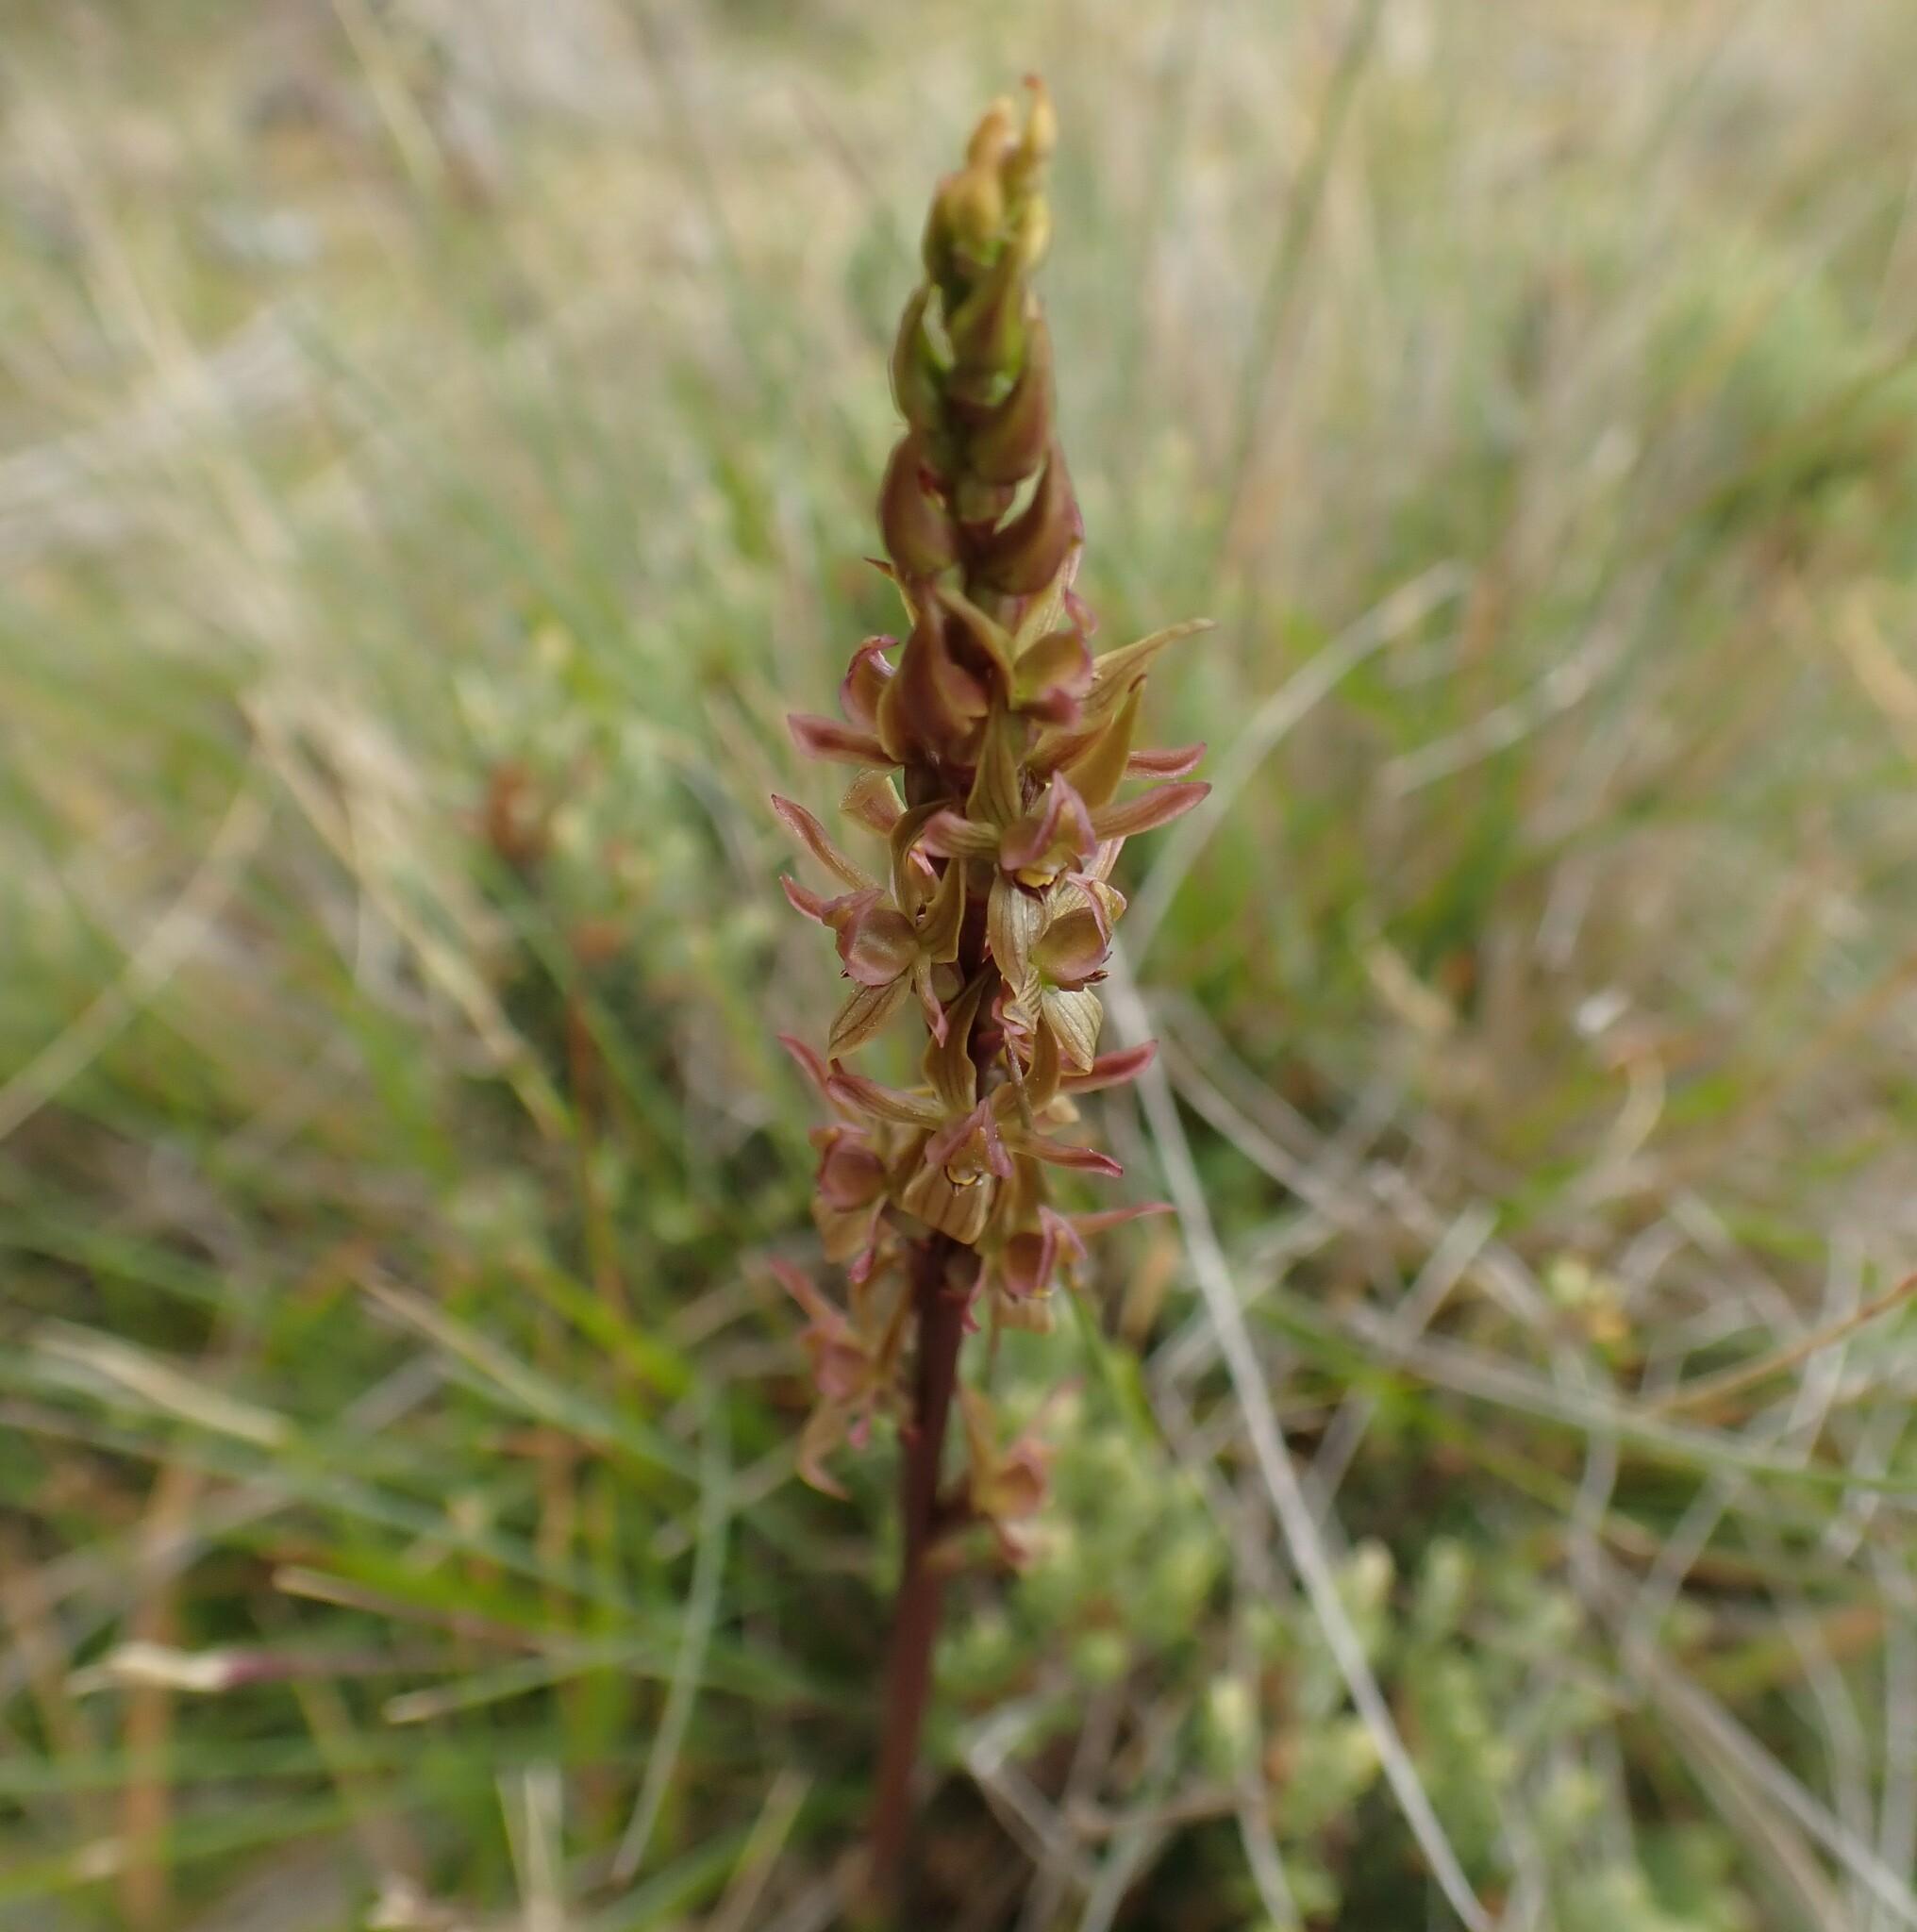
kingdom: Plantae
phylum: Tracheophyta
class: Liliopsida
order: Asparagales
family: Orchidaceae
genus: Prasophyllum
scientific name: Prasophyllum crebriflorum
